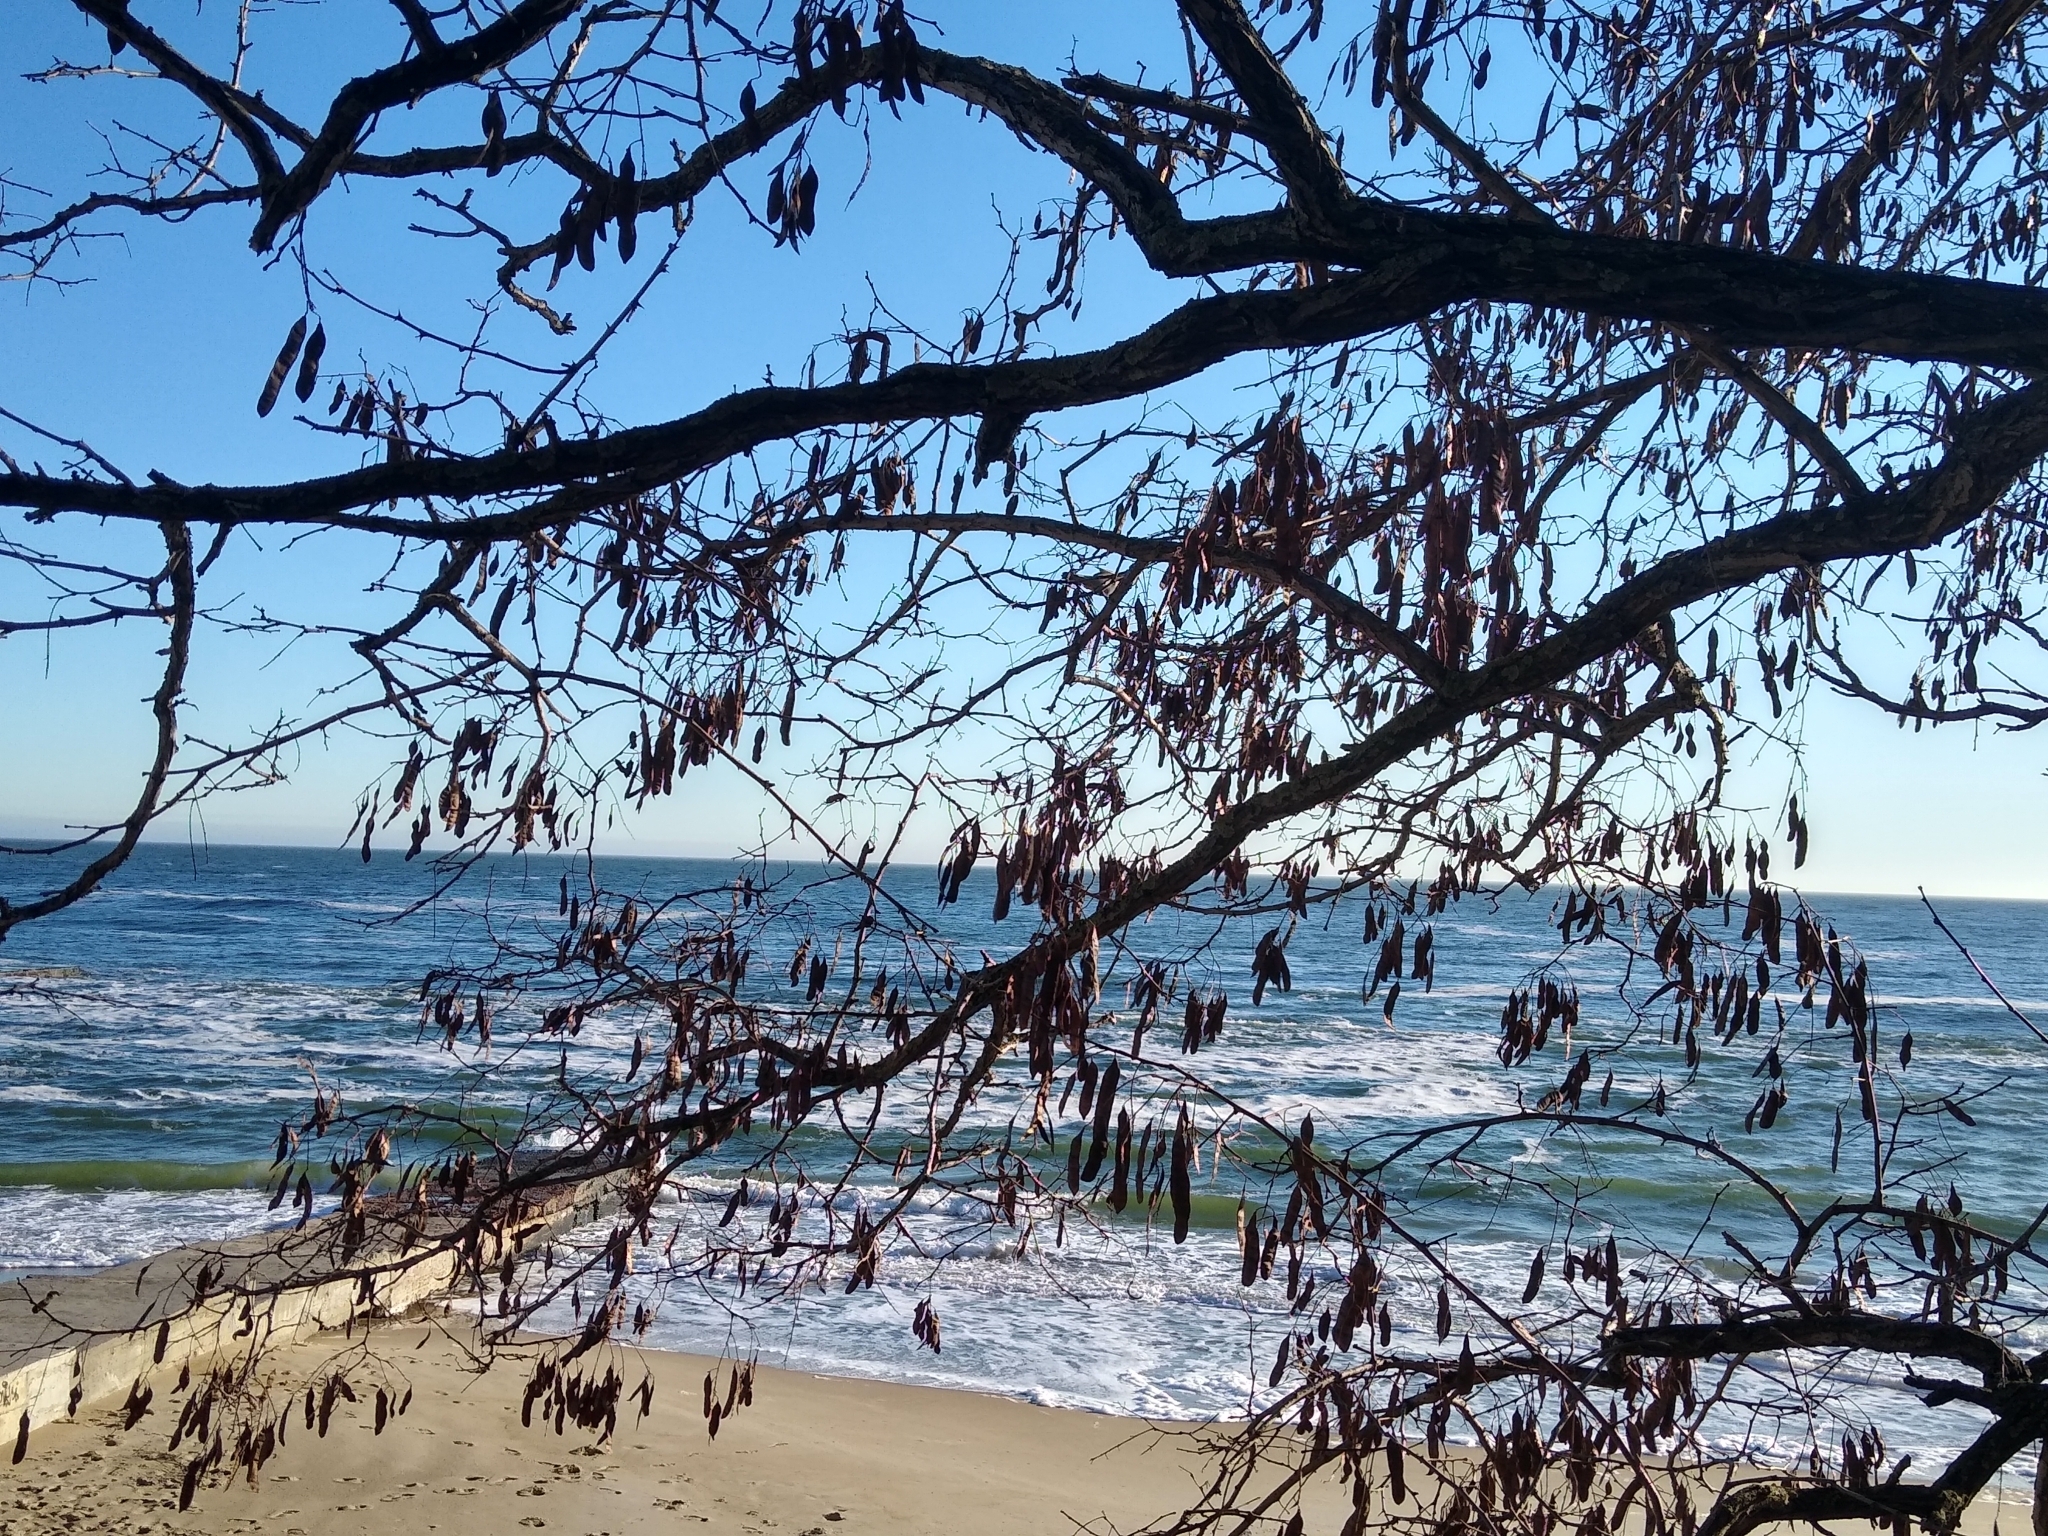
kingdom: Plantae
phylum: Tracheophyta
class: Magnoliopsida
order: Fabales
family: Fabaceae
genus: Robinia
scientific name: Robinia pseudoacacia
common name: Black locust
